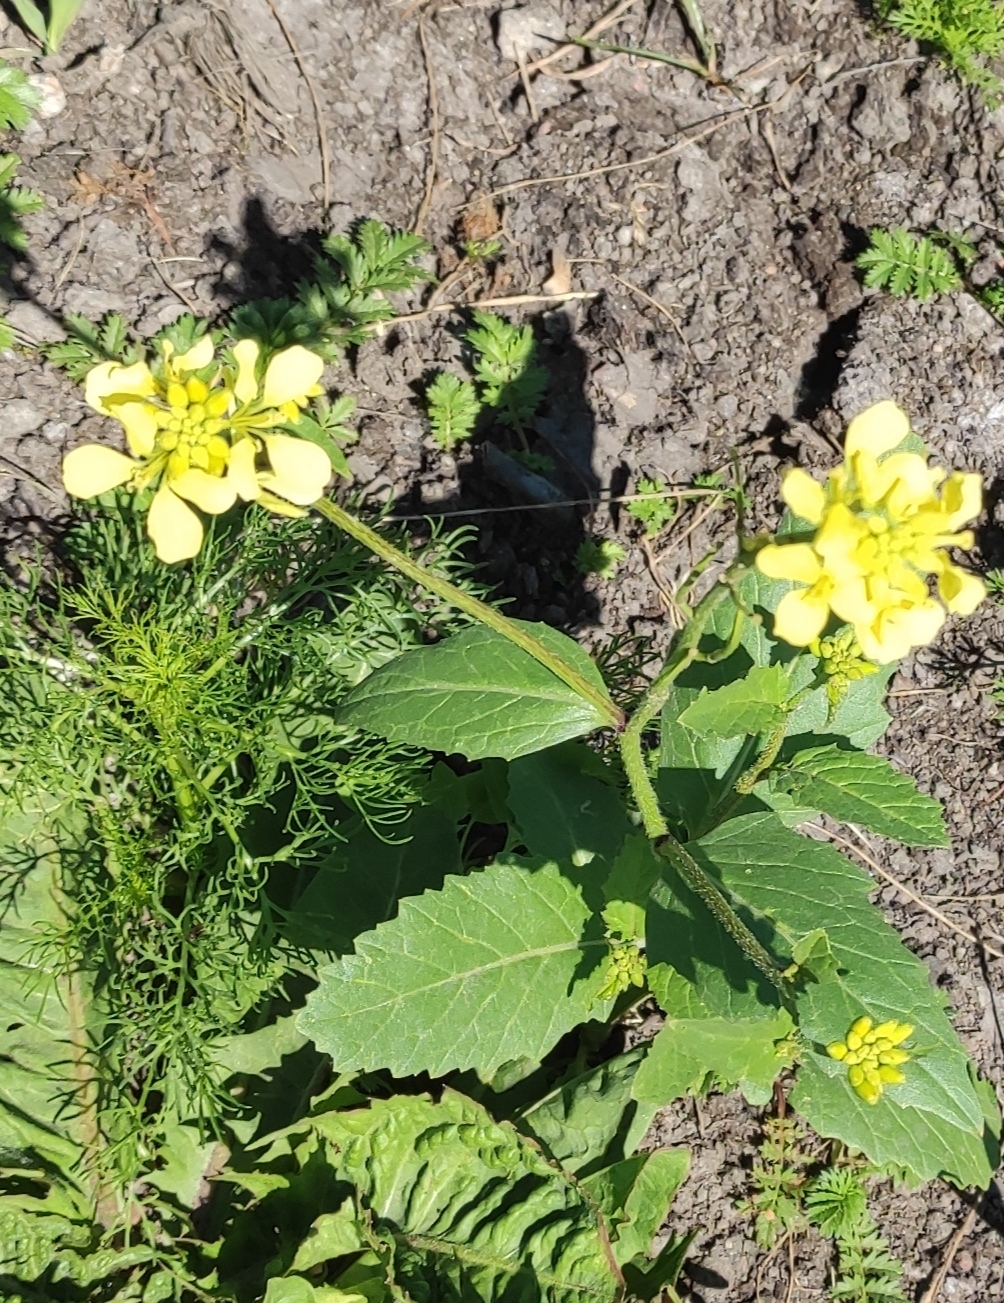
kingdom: Plantae
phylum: Tracheophyta
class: Magnoliopsida
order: Brassicales
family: Brassicaceae
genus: Sinapis
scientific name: Sinapis arvensis
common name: Charlock
